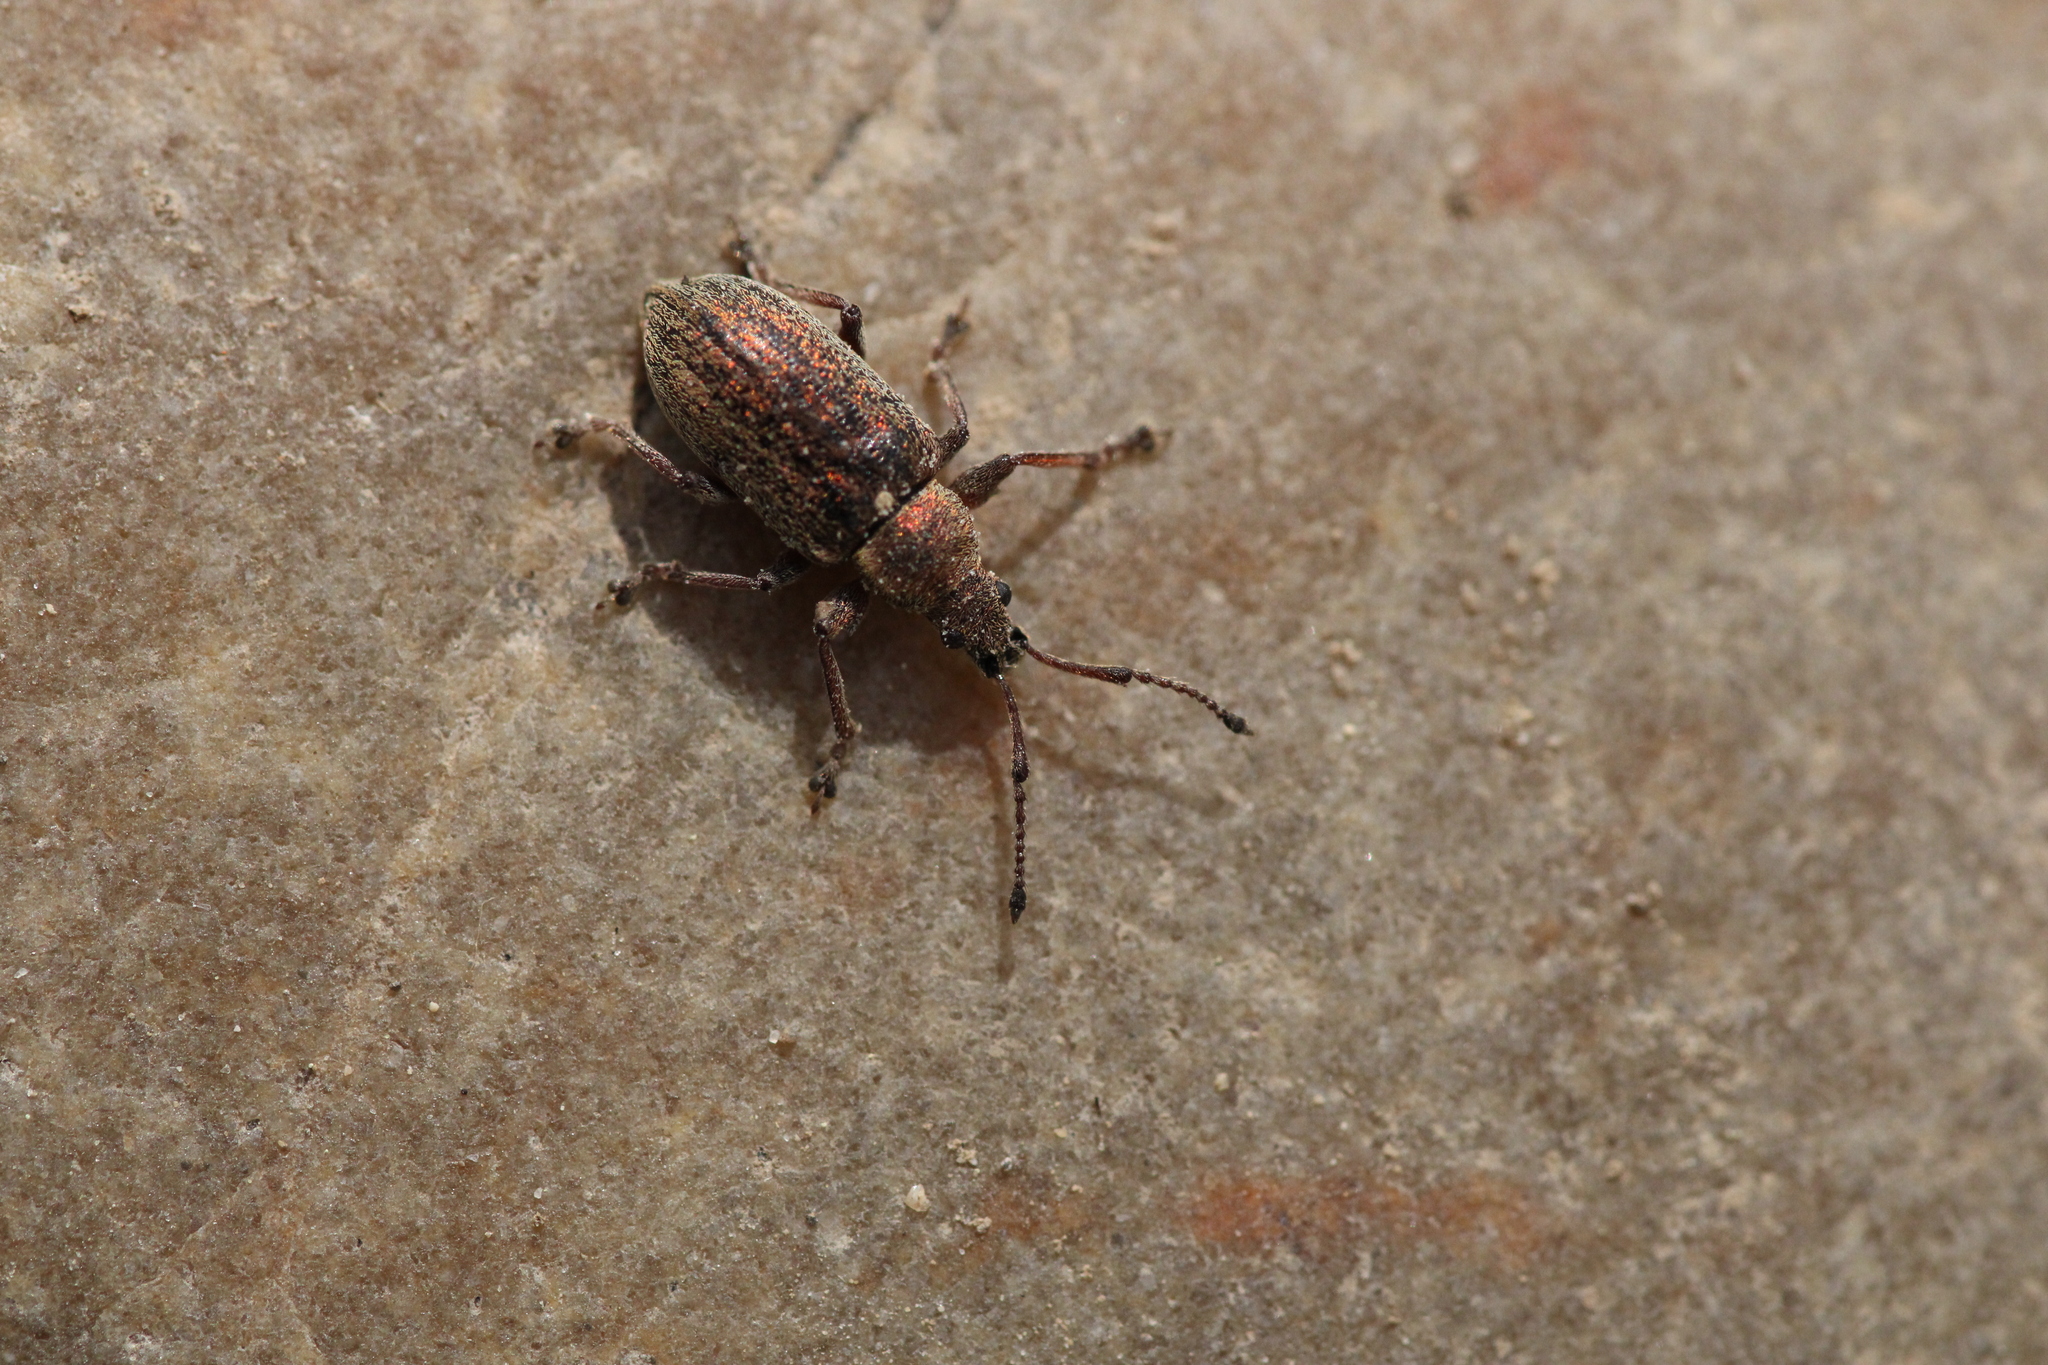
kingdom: Animalia
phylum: Arthropoda
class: Insecta
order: Coleoptera
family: Curculionidae
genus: Phyllobius
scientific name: Phyllobius pyri
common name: Common leaf weevil
